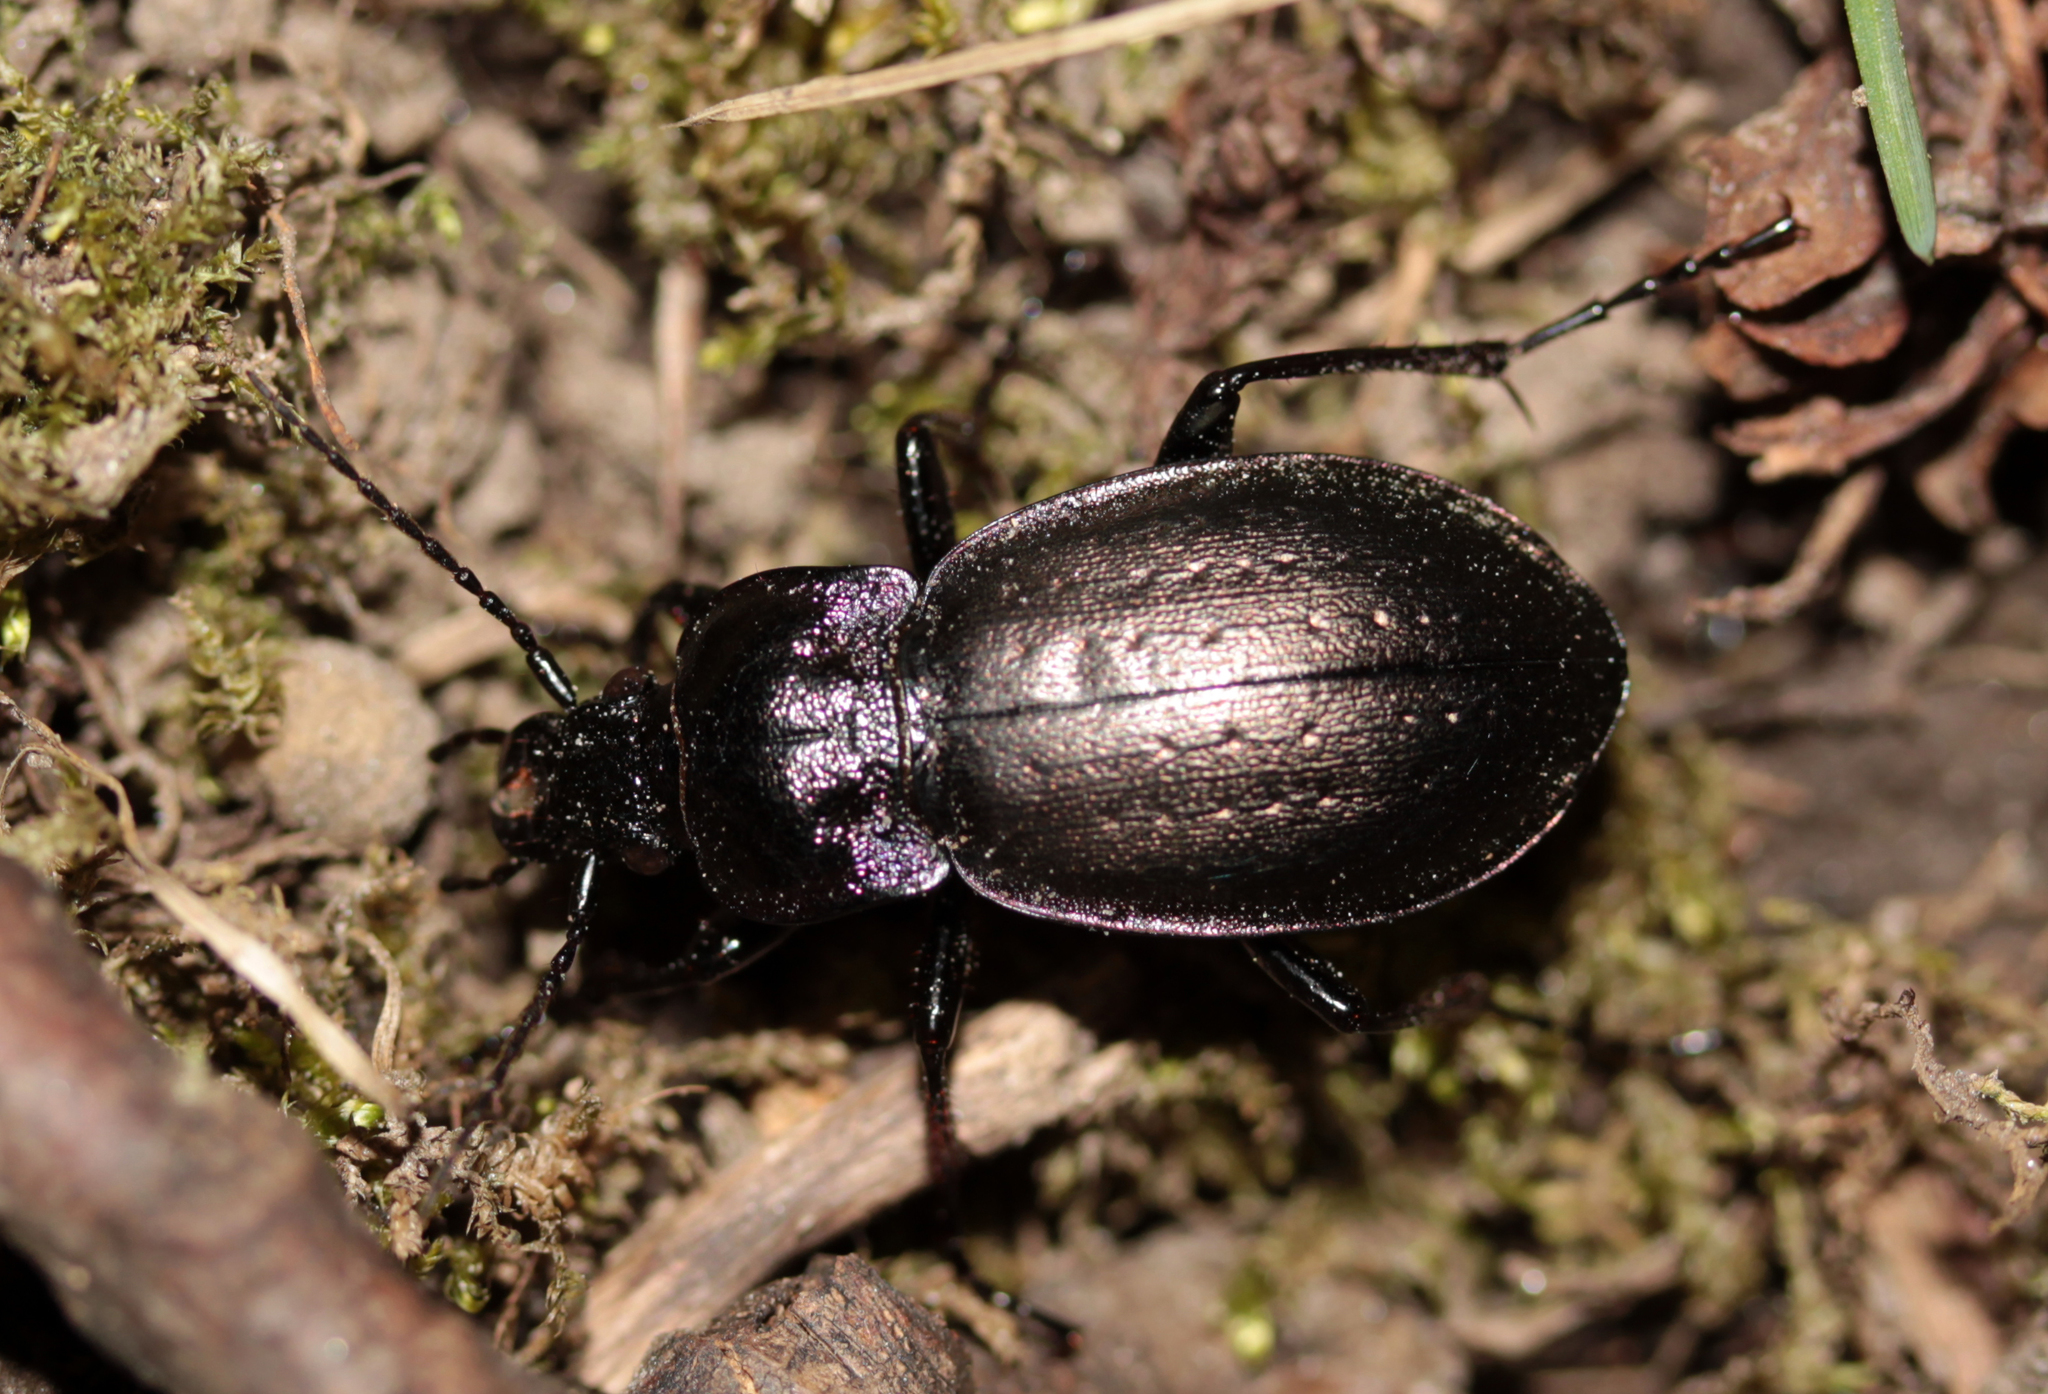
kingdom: Animalia
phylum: Arthropoda
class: Insecta
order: Coleoptera
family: Carabidae
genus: Carabus
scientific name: Carabus nemoralis
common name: European ground beetle
